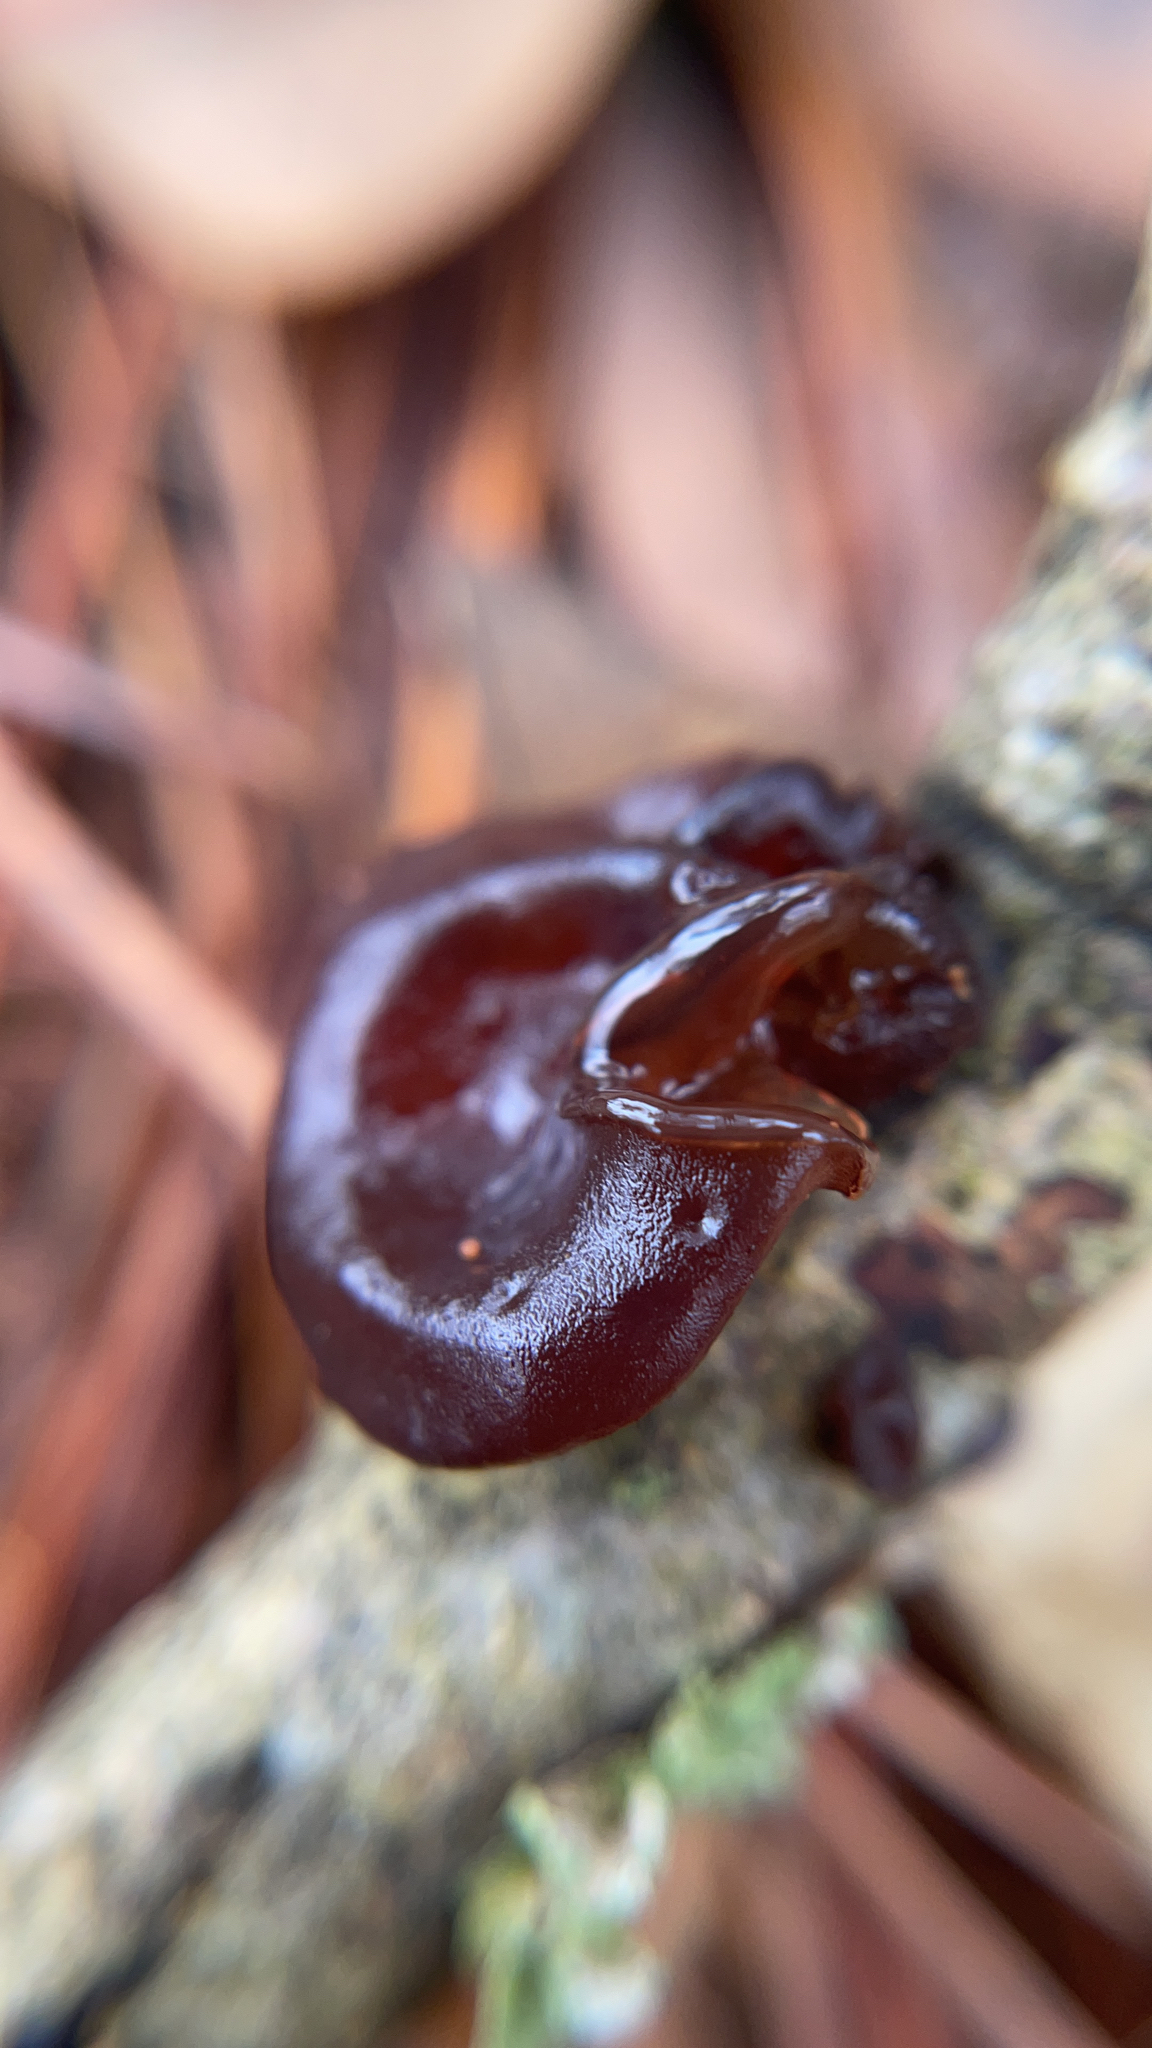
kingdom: Fungi
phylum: Basidiomycota
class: Agaricomycetes
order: Auriculariales
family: Auriculariaceae
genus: Exidia
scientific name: Exidia
